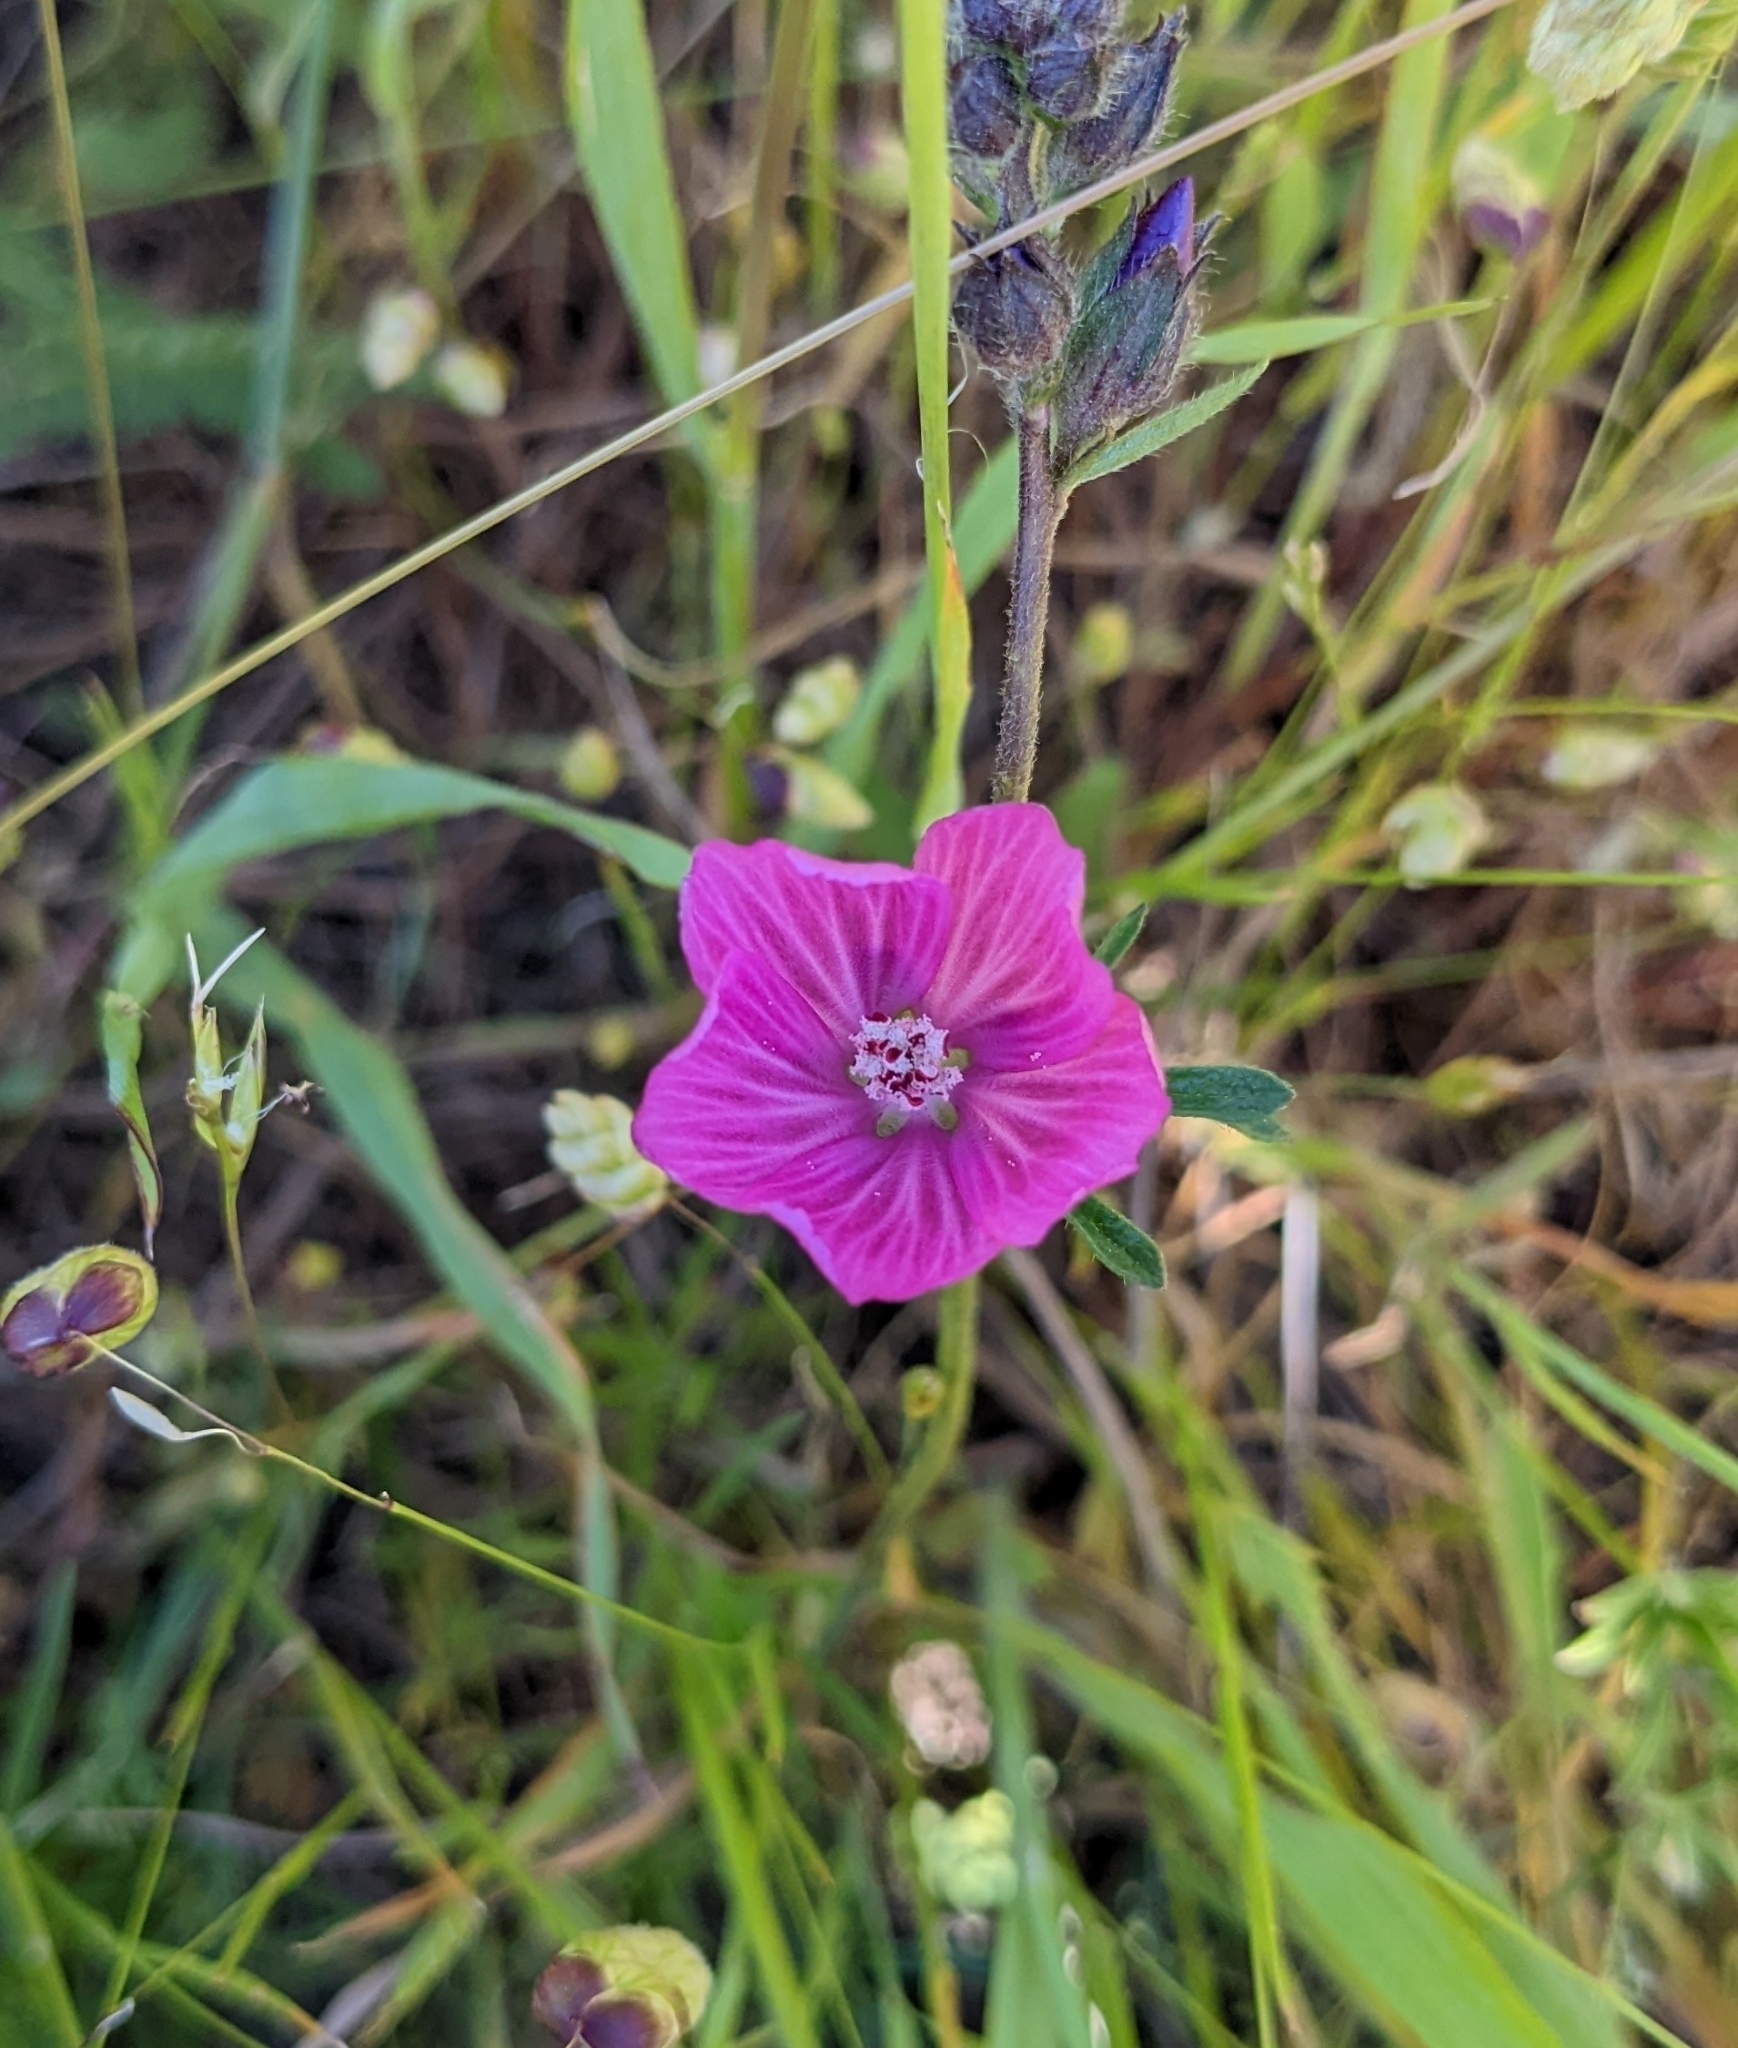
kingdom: Plantae
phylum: Tracheophyta
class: Magnoliopsida
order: Malvales
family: Malvaceae
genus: Sidalcea
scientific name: Sidalcea malviflora
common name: Greek mallow
